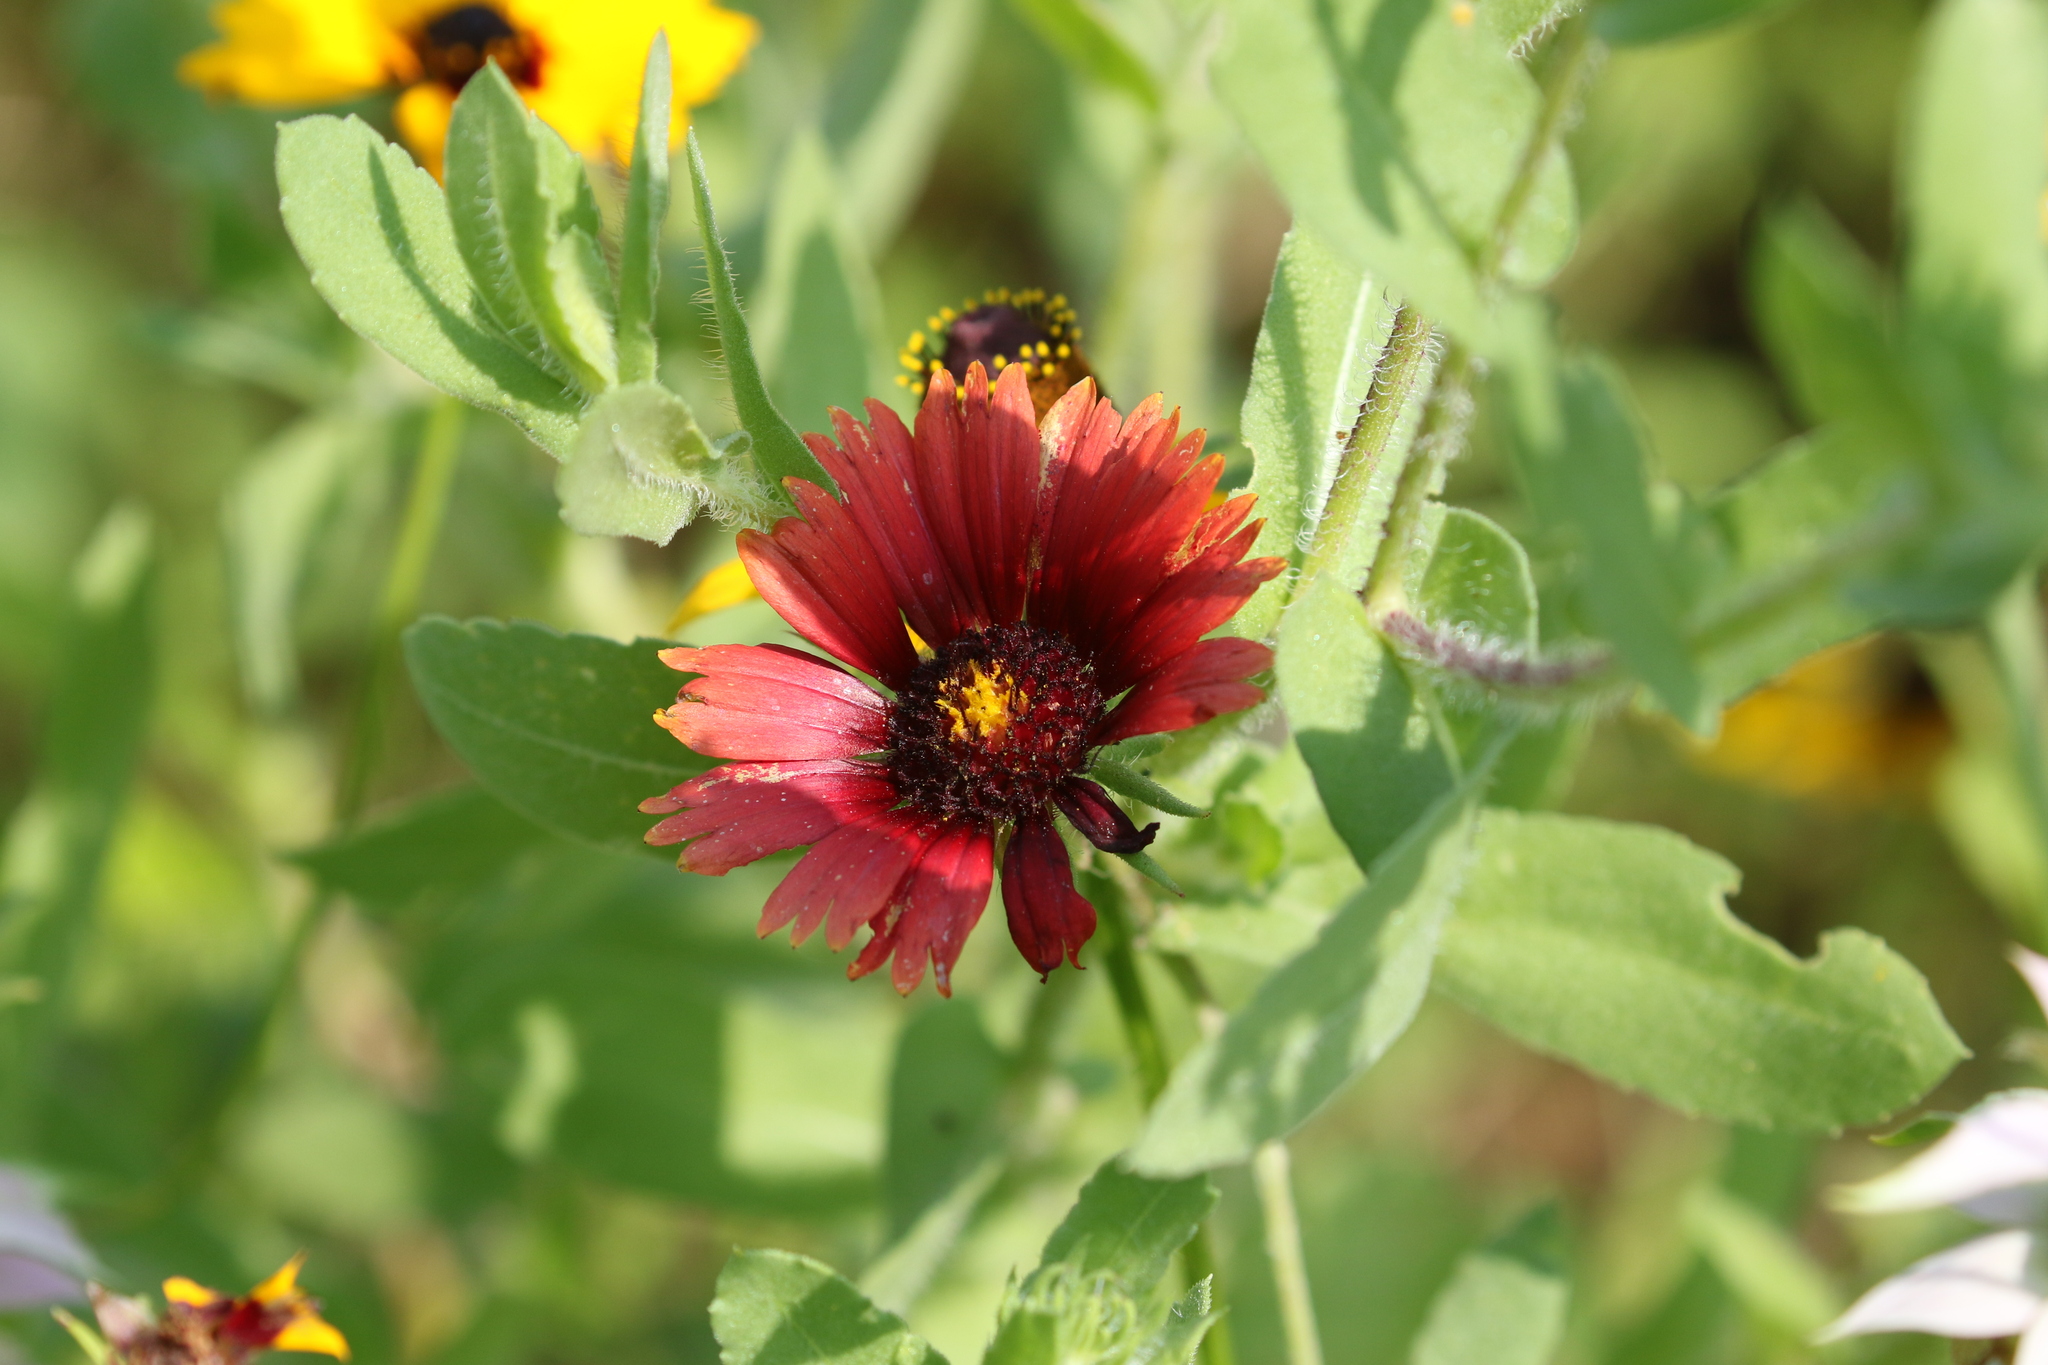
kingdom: Plantae
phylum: Tracheophyta
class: Magnoliopsida
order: Asterales
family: Asteraceae
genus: Gaillardia
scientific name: Gaillardia amblyodon
